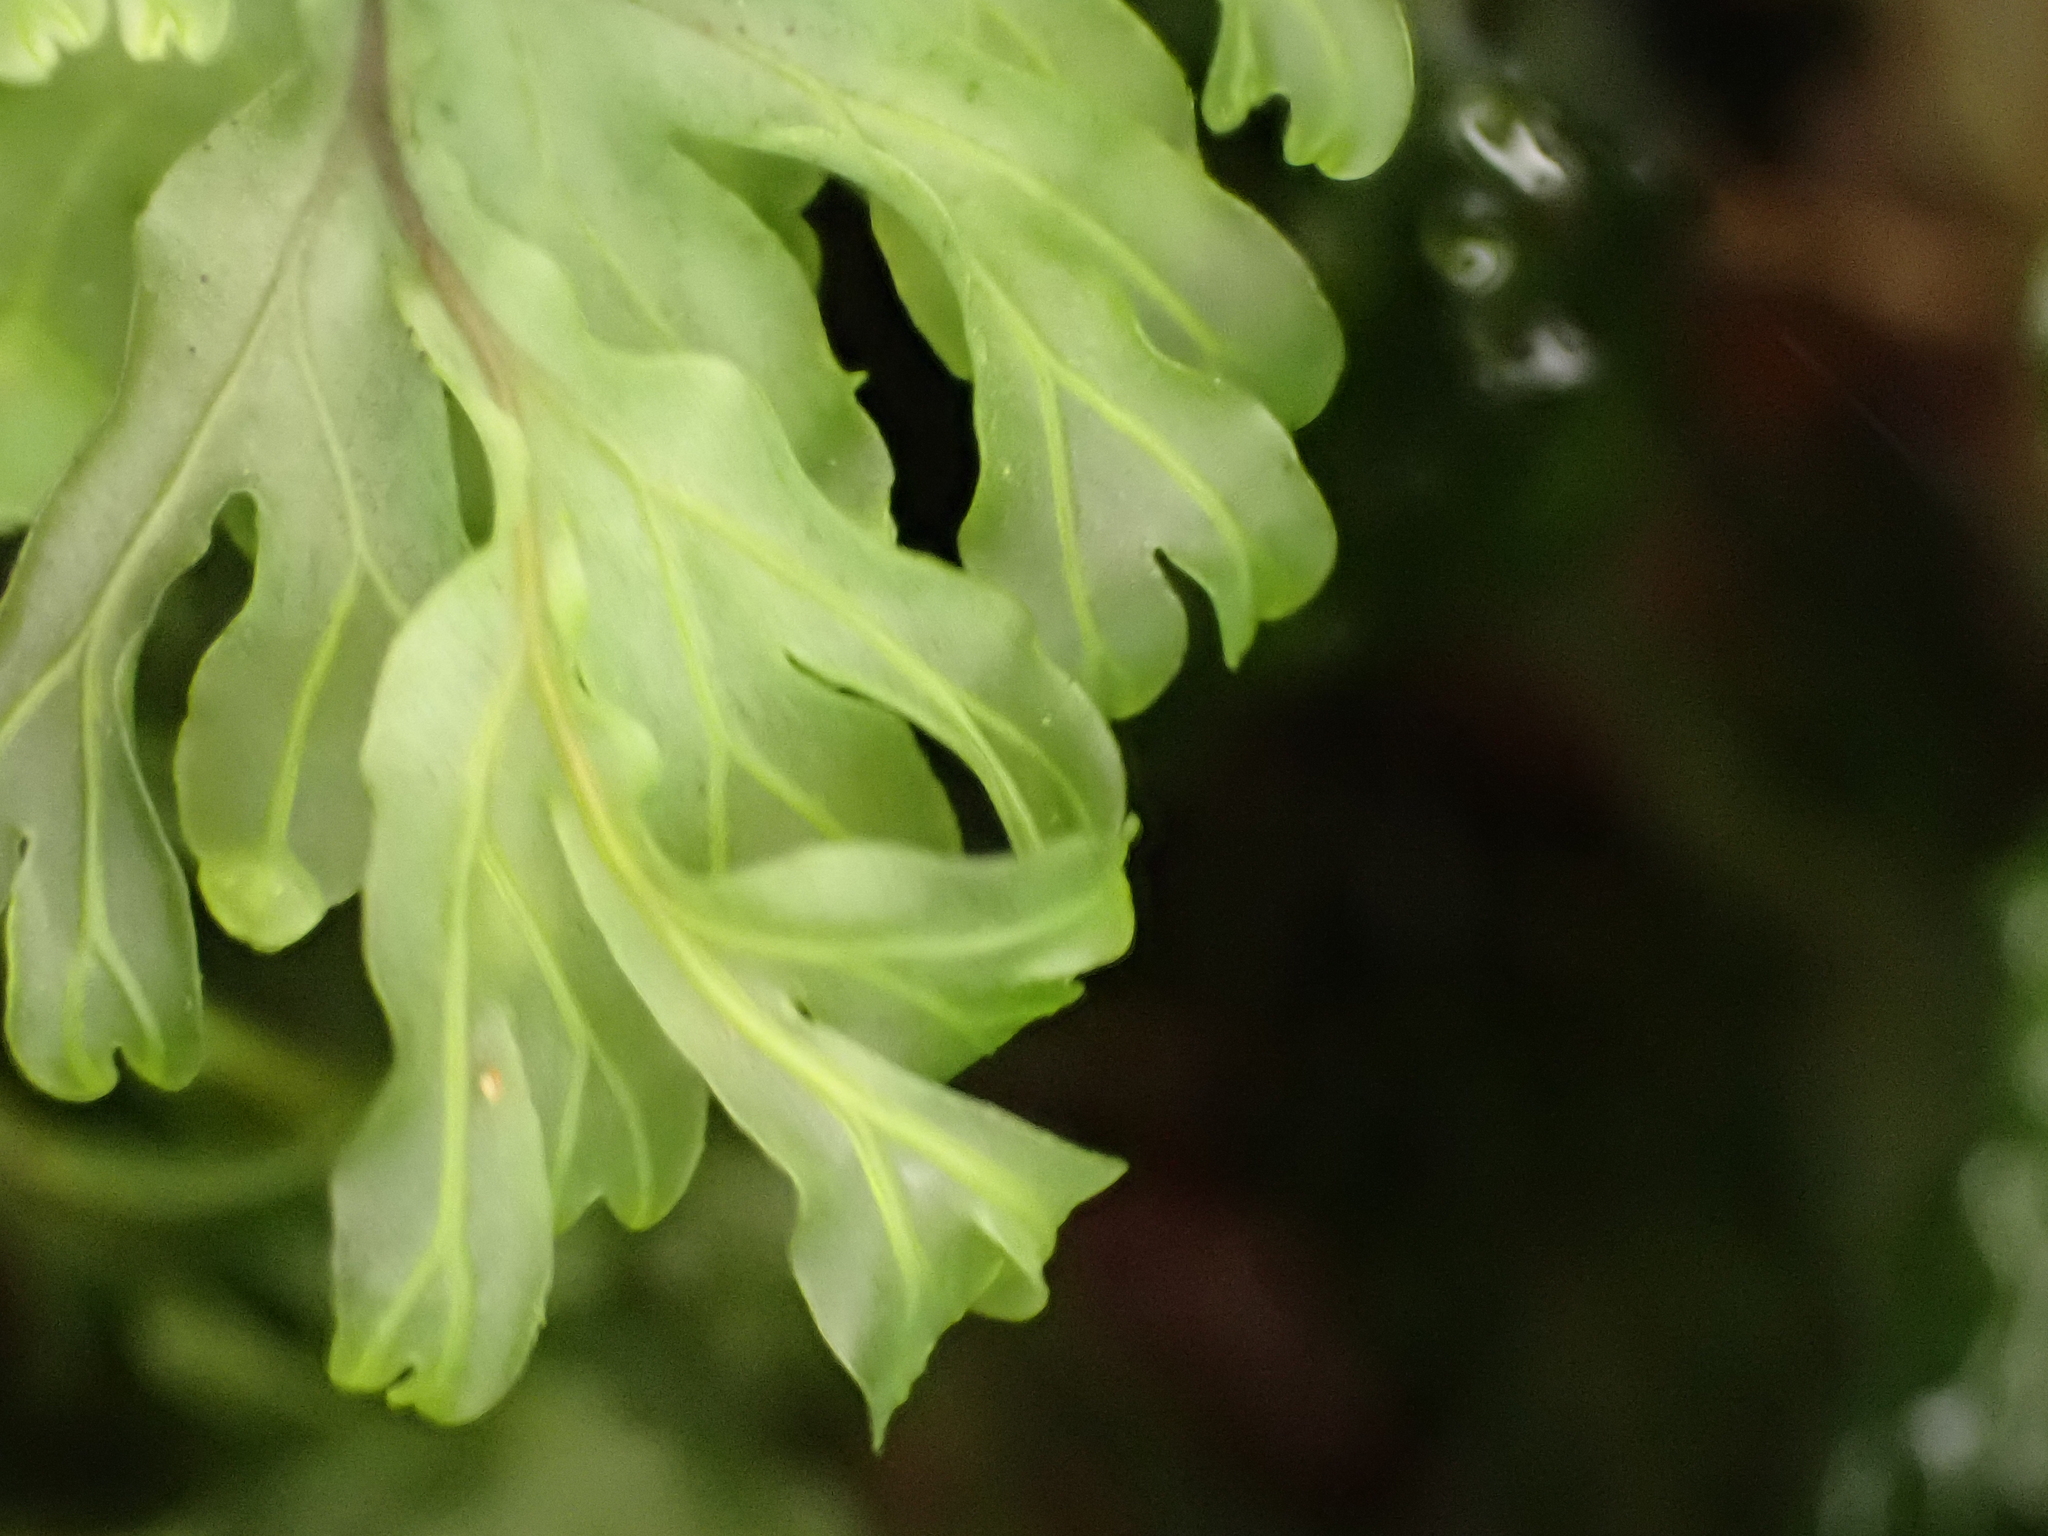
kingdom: Plantae
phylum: Tracheophyta
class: Polypodiopsida
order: Hymenophyllales
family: Hymenophyllaceae
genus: Hymenophyllum
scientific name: Hymenophyllum rarum
